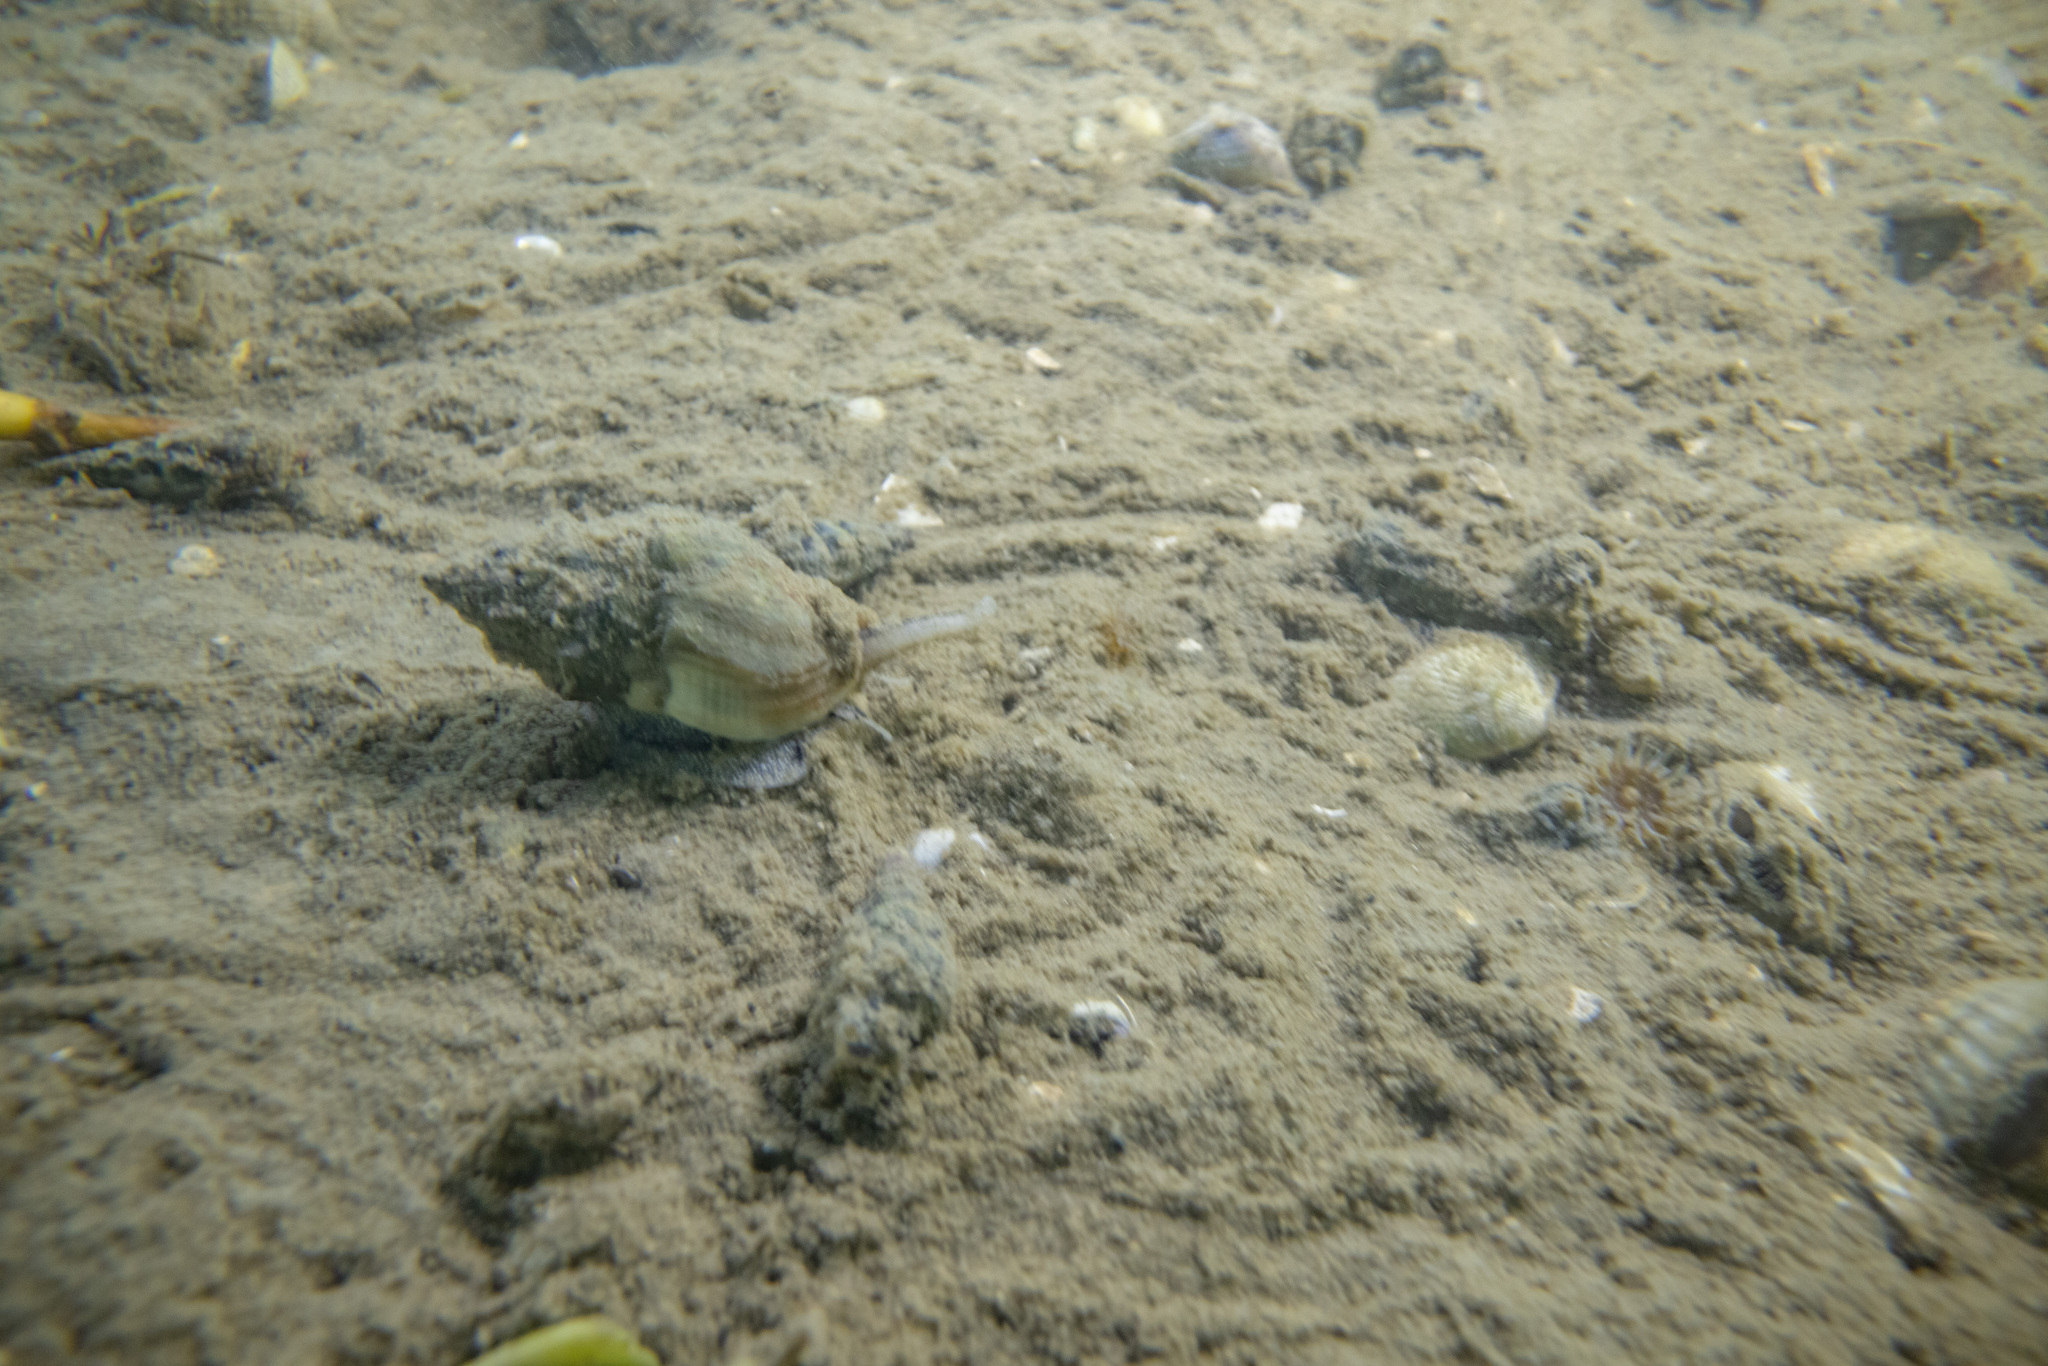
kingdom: Animalia
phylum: Mollusca
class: Gastropoda
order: Neogastropoda
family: Cominellidae
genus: Cominella
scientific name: Cominella glandiformis
